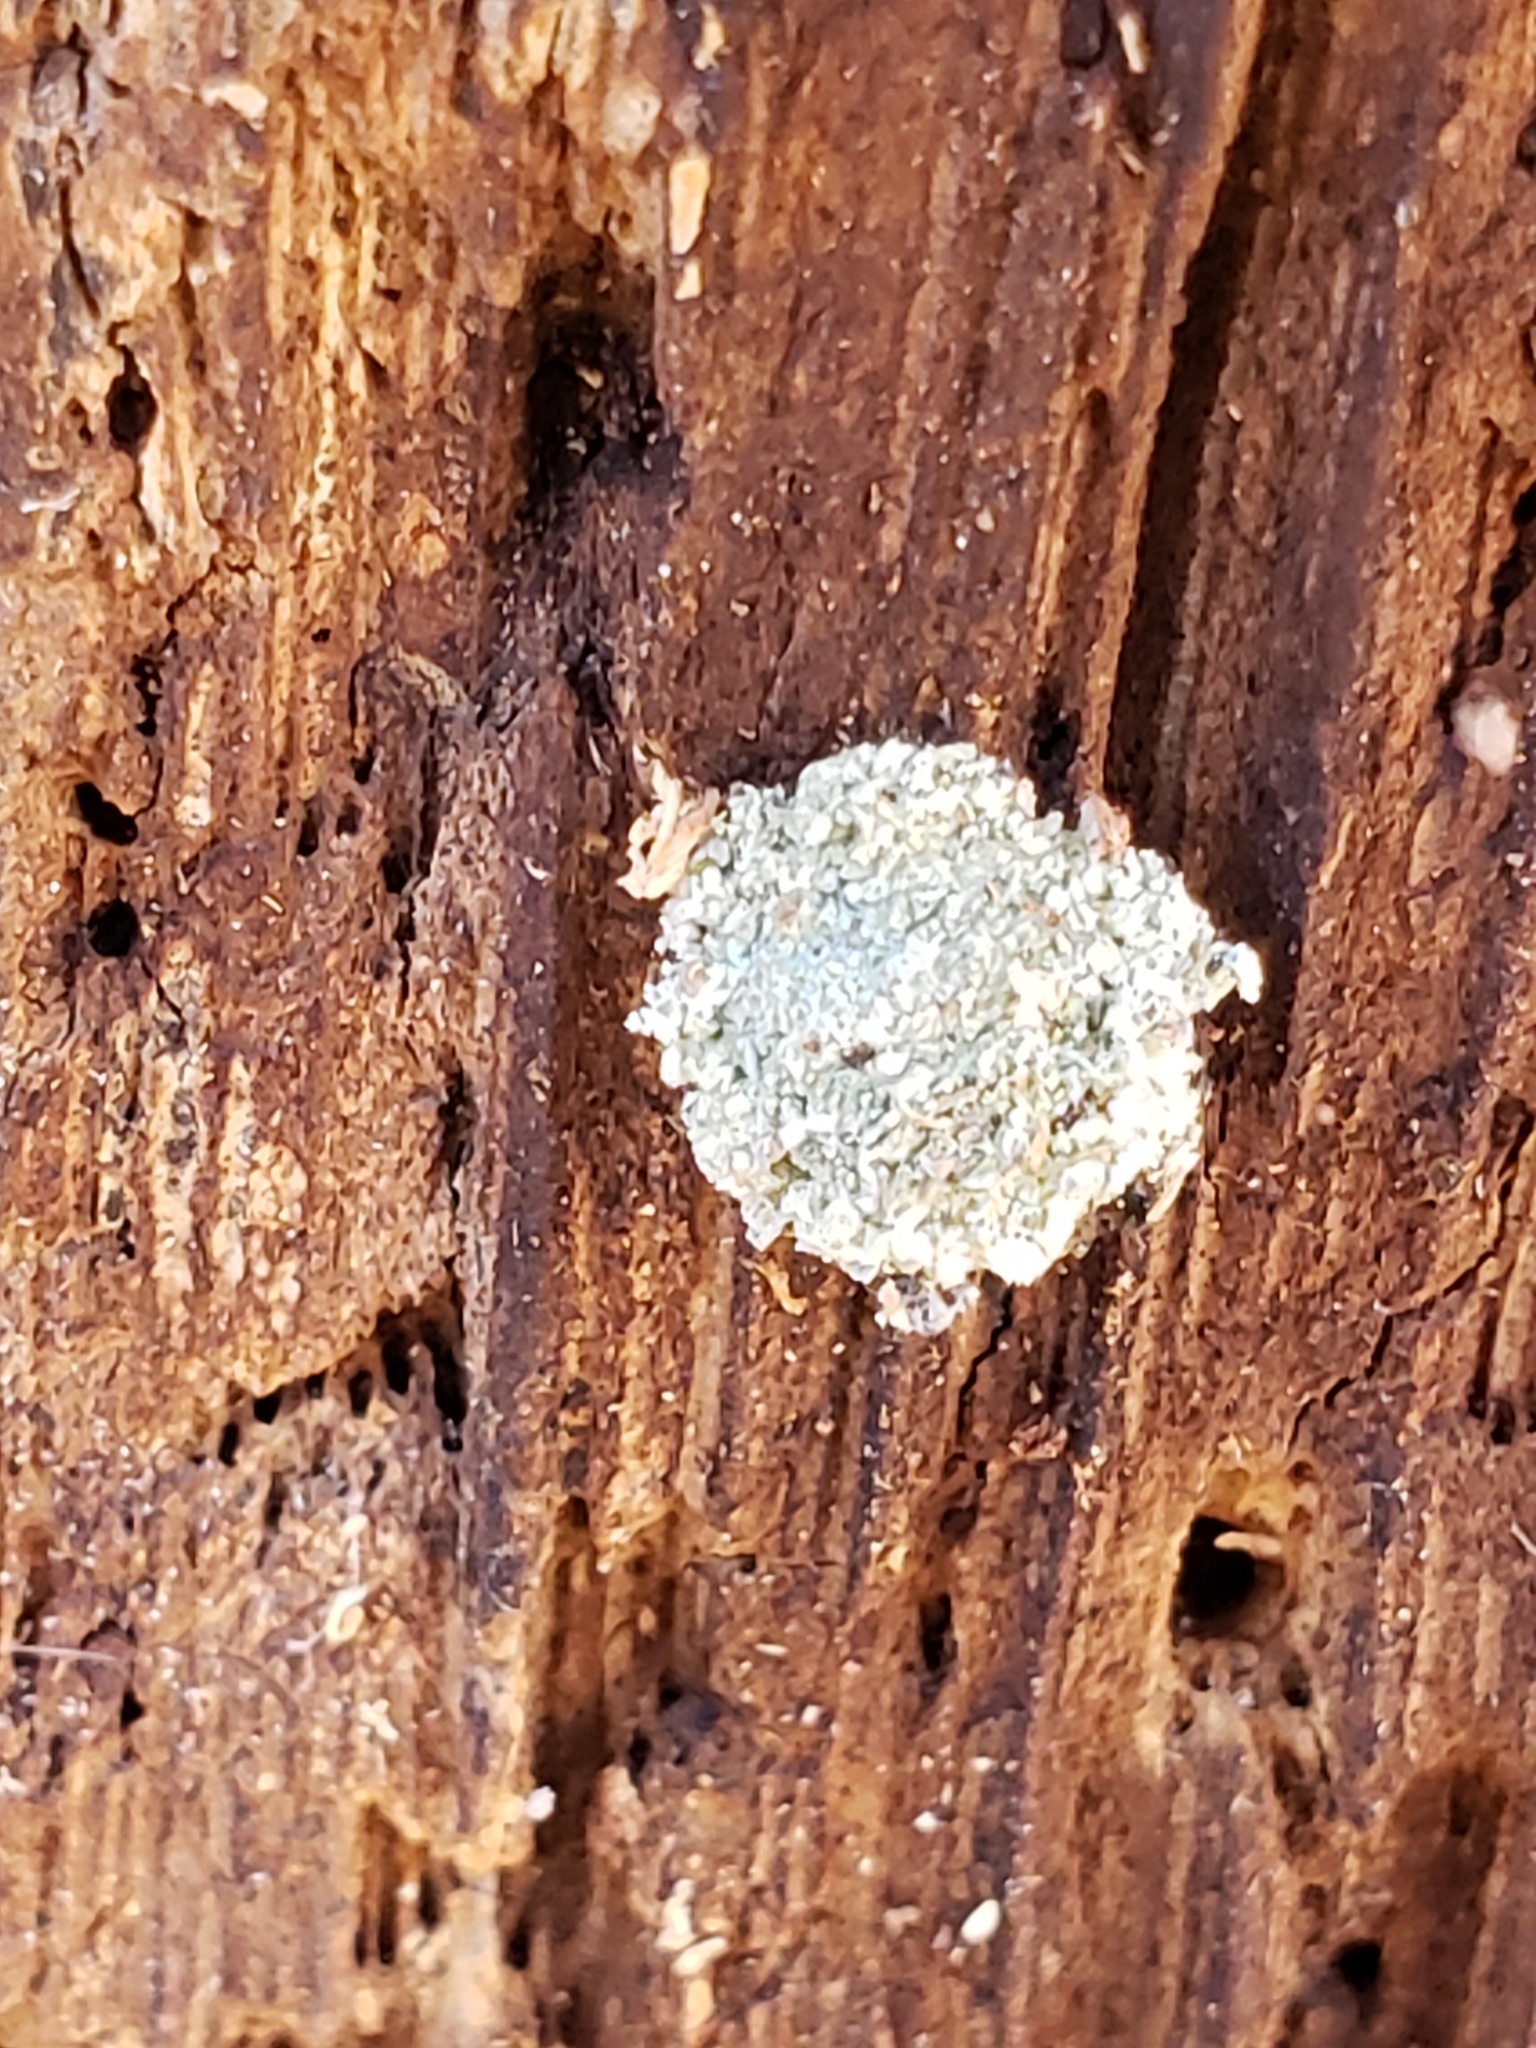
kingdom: Animalia
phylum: Arthropoda
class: Insecta
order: Neuroptera
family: Chrysopidae
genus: Leucochrysa
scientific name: Leucochrysa pavida
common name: Lichen-carrying green lacewing
